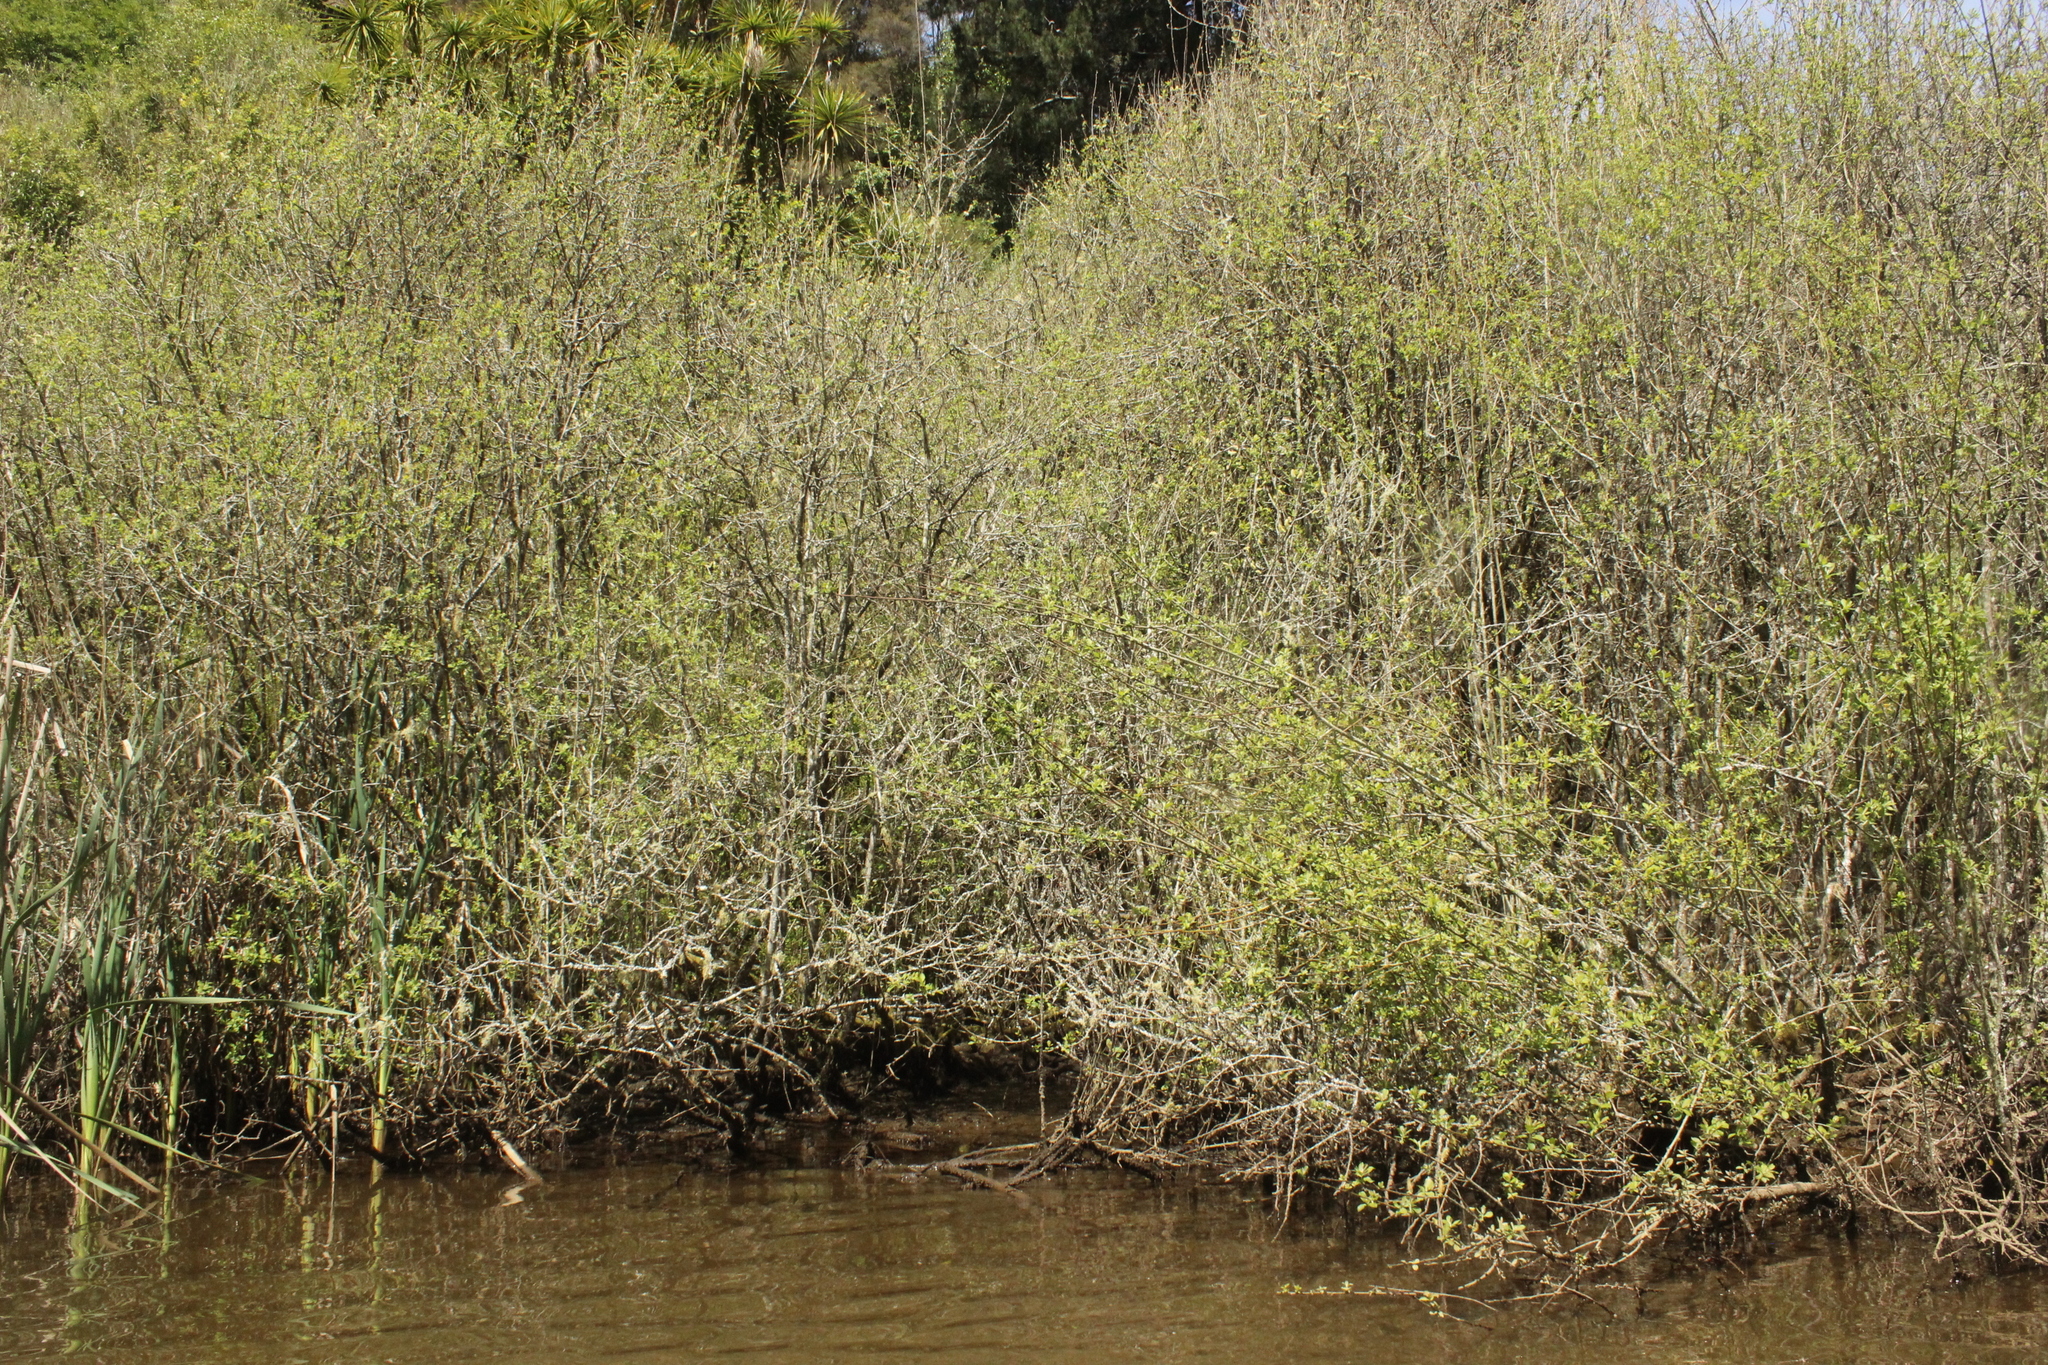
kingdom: Plantae
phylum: Tracheophyta
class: Magnoliopsida
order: Malpighiales
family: Salicaceae
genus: Salix
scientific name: Salix caprea
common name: Goat willow
